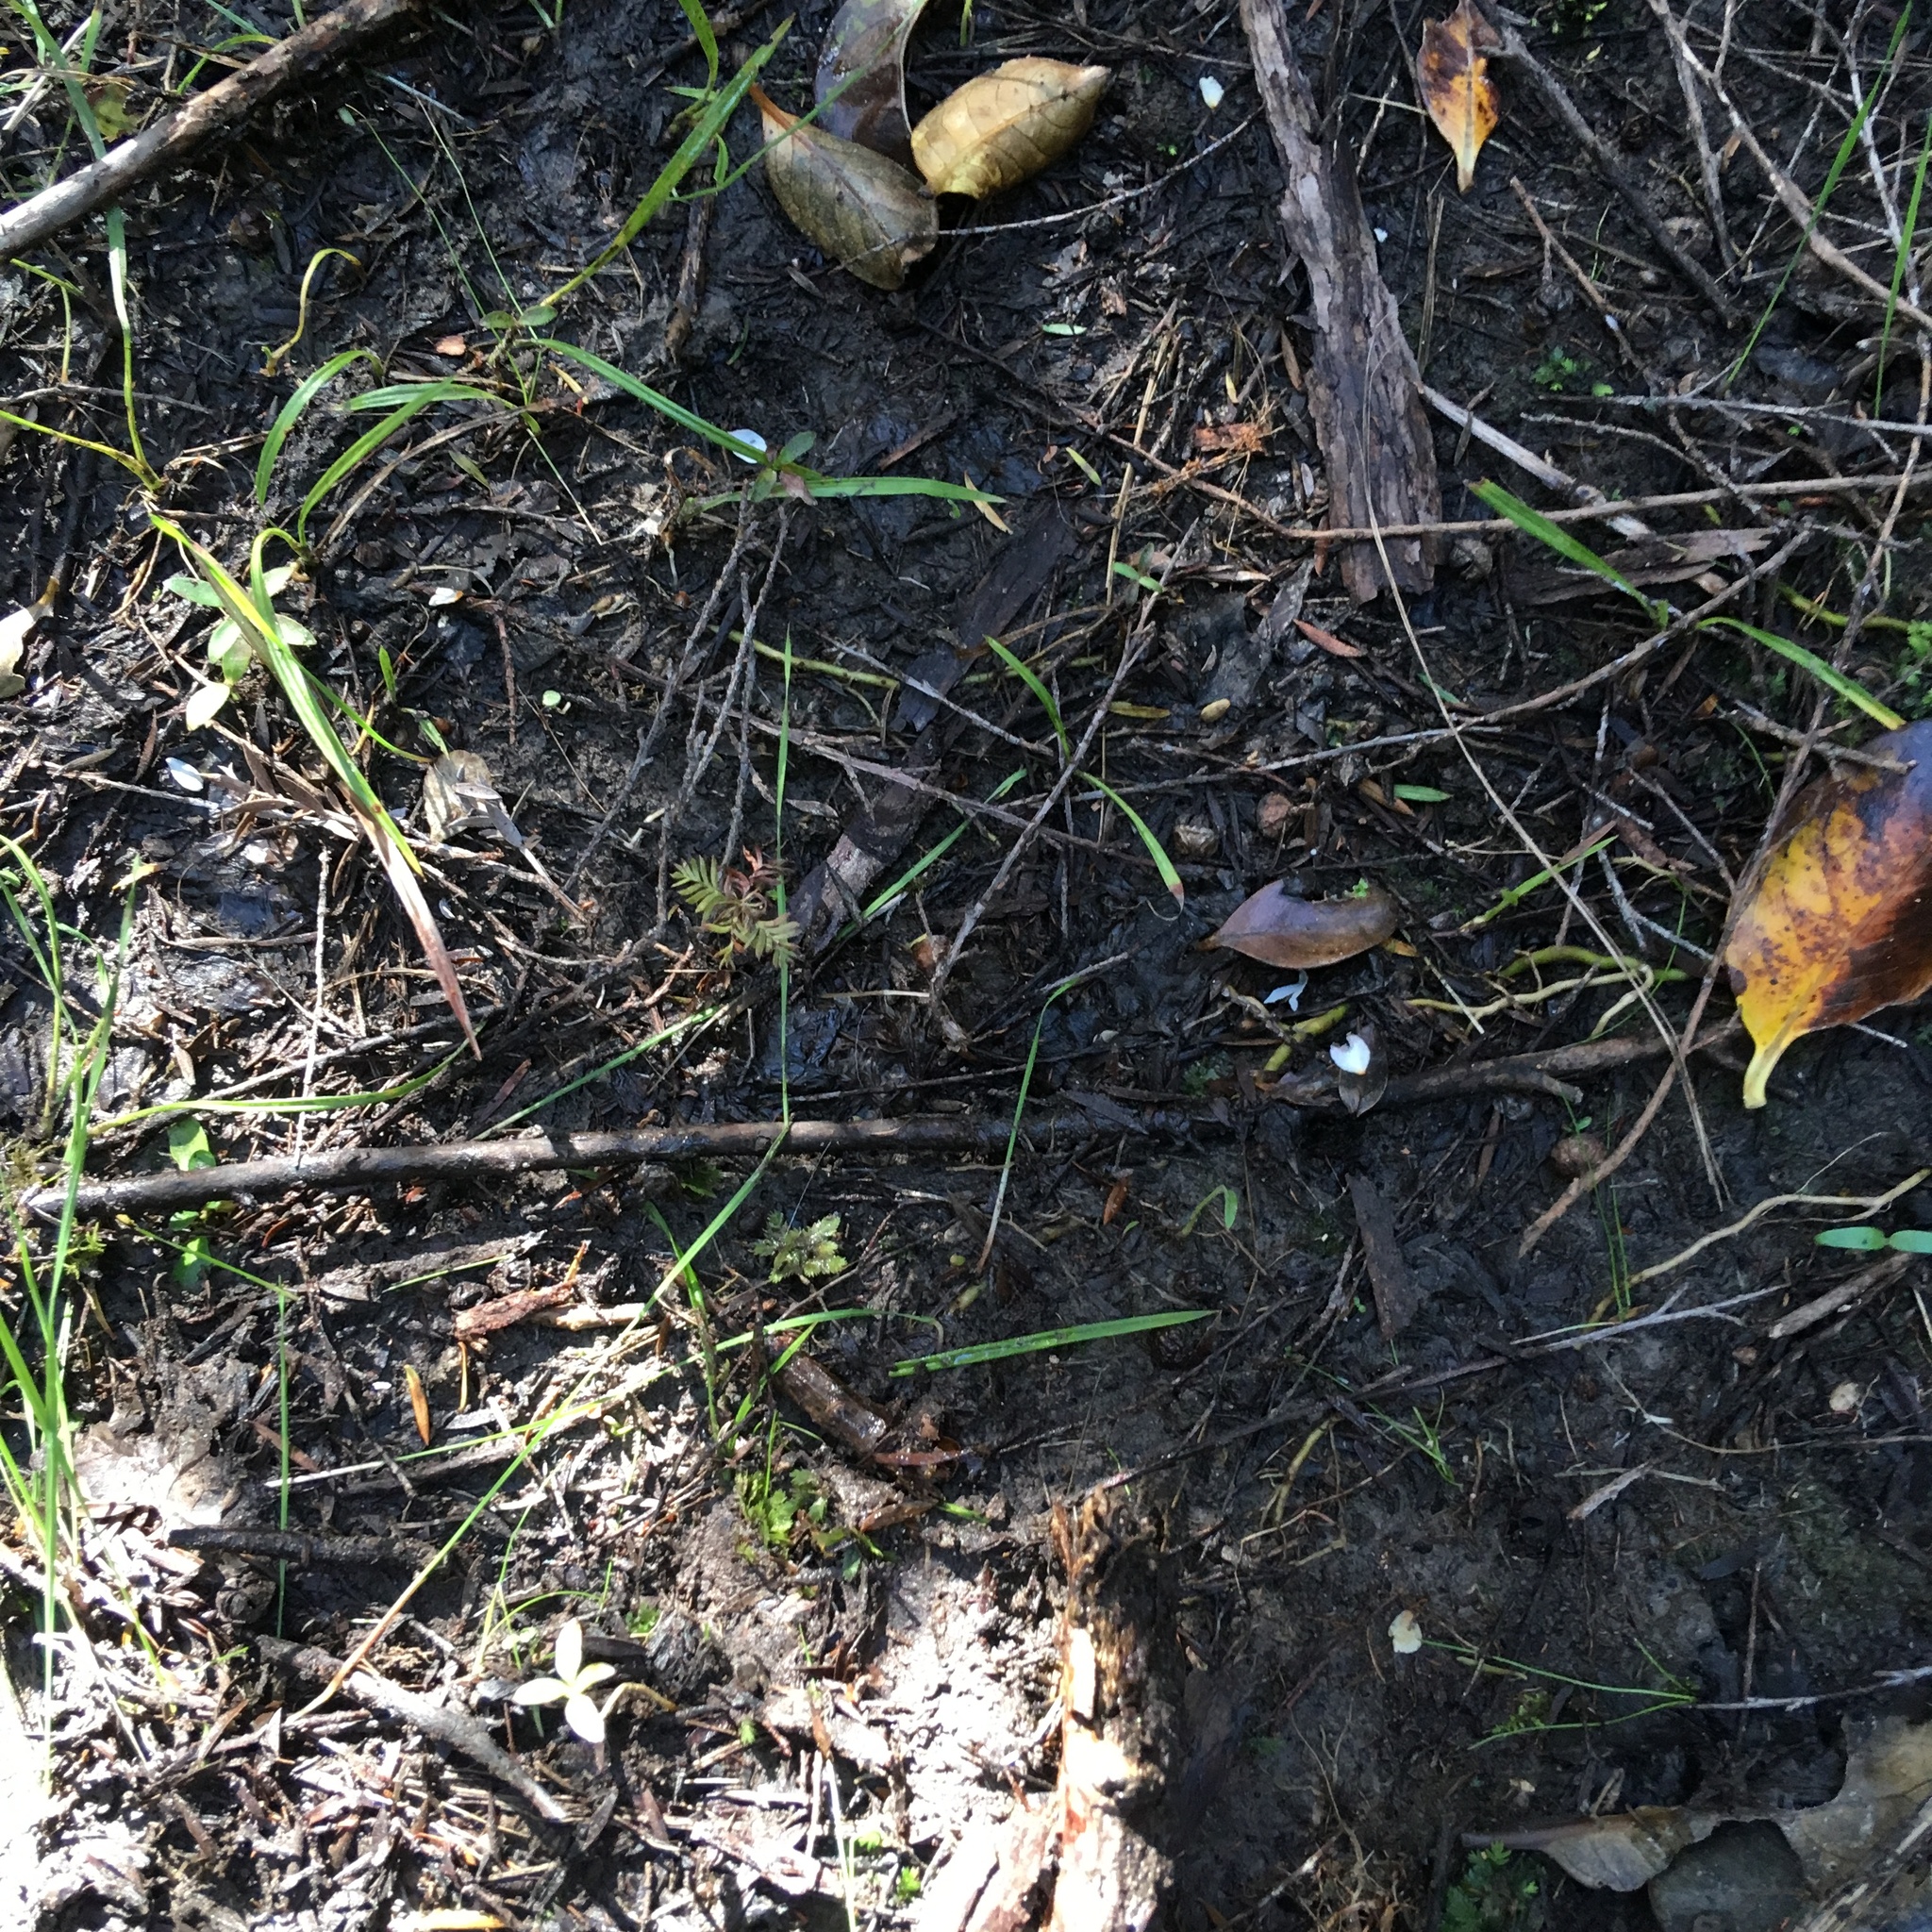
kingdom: Plantae
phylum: Tracheophyta
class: Pinopsida
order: Pinales
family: Podocarpaceae
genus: Dacrycarpus
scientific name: Dacrycarpus dacrydioides
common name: White pine
